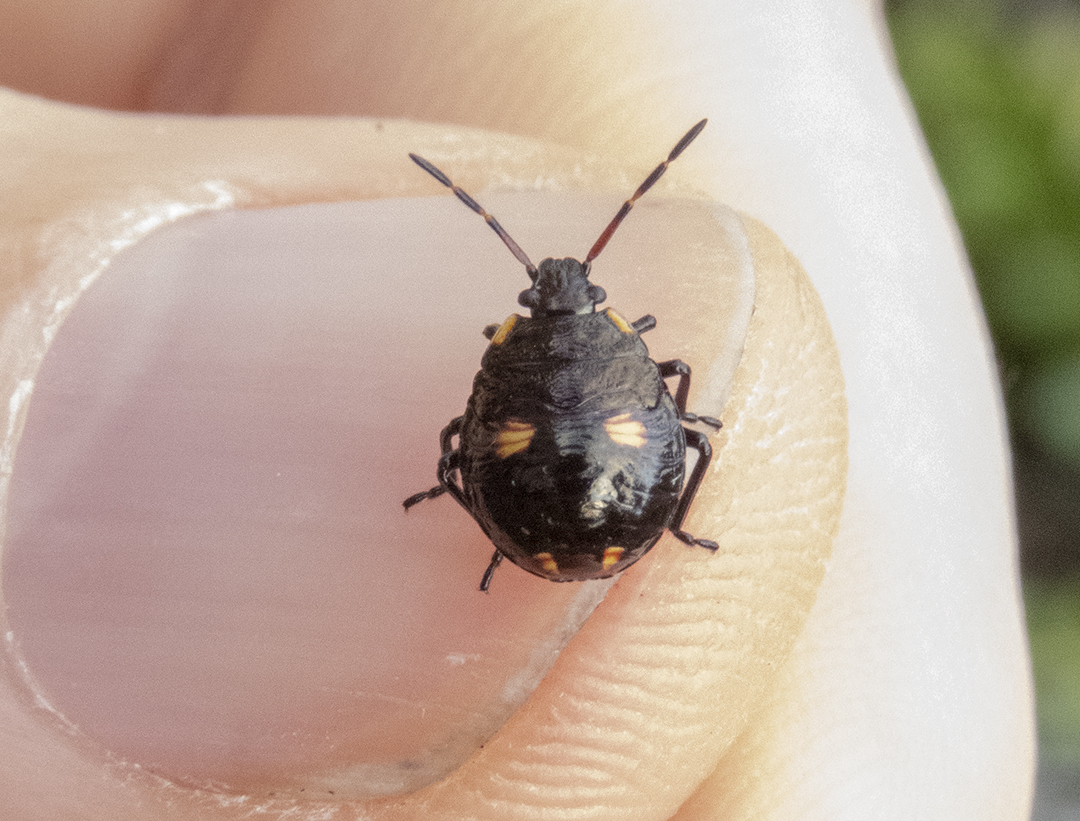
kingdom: Animalia
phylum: Arthropoda
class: Insecta
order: Hemiptera
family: Pentatomidae
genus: Cermatulus
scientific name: Cermatulus nasalis
